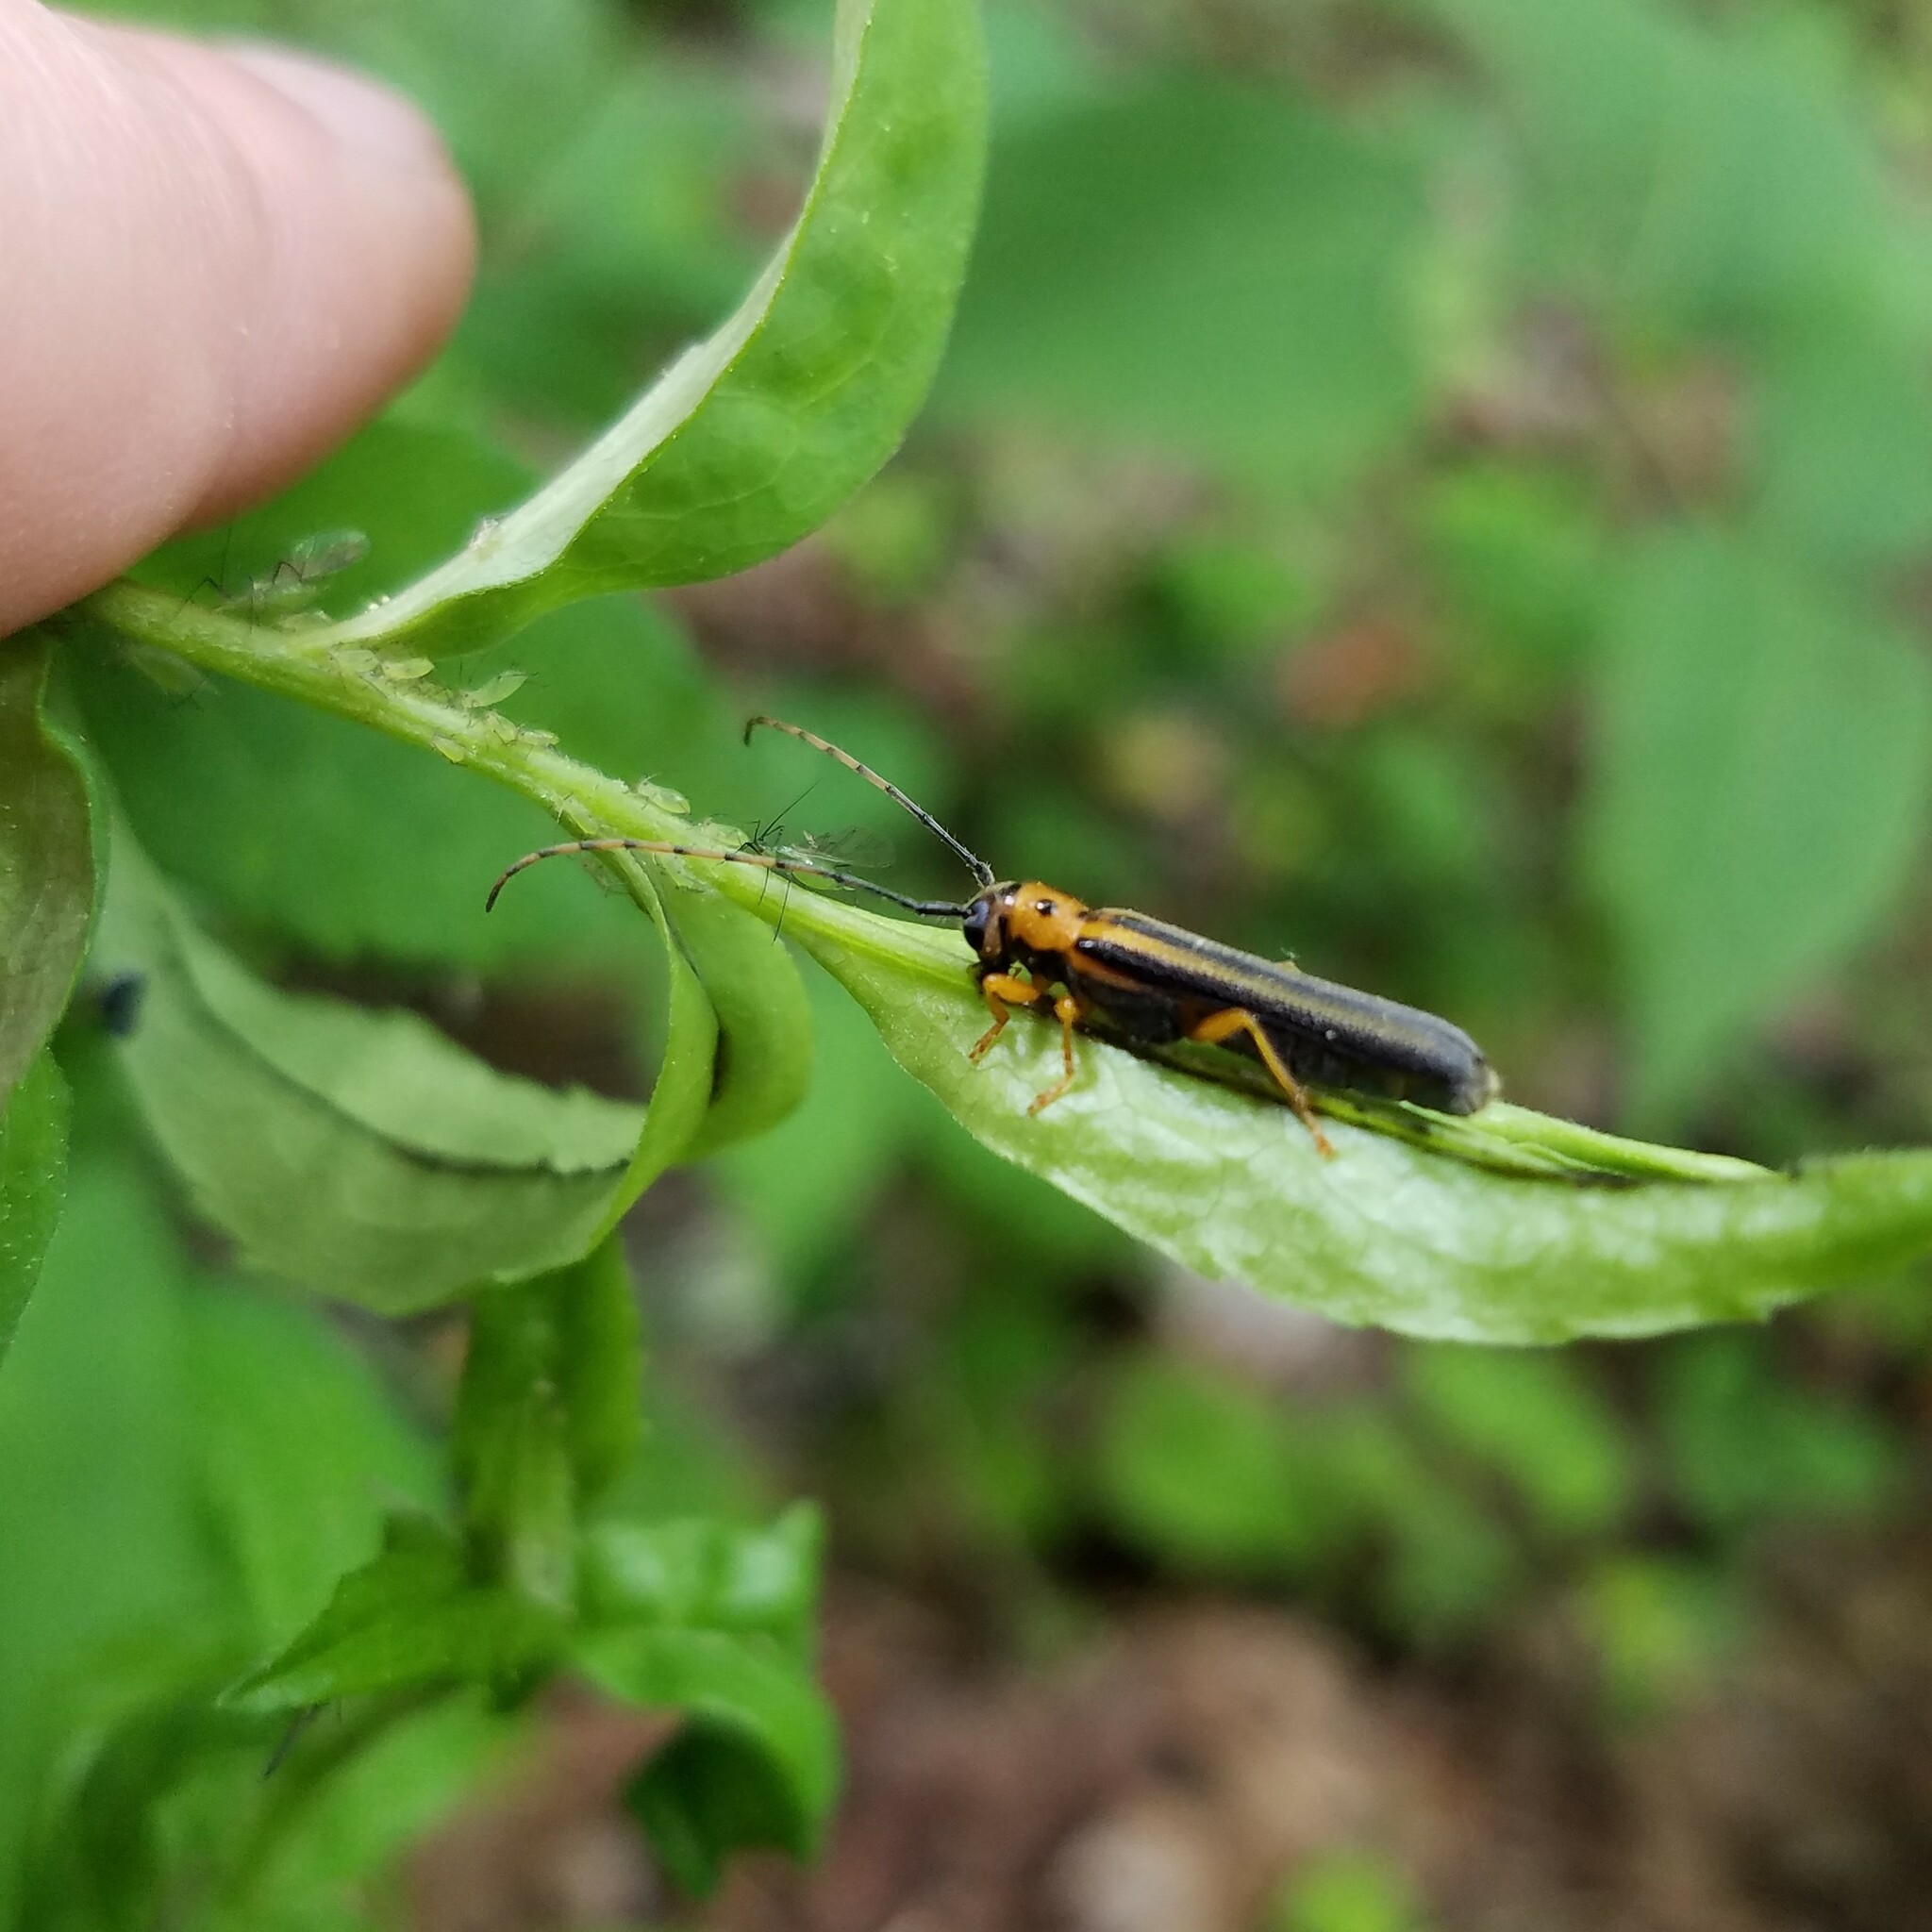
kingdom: Animalia
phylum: Arthropoda
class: Insecta
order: Coleoptera
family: Cerambycidae
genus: Oberea
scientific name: Oberea tripunctata
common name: Dogwood twig borer
